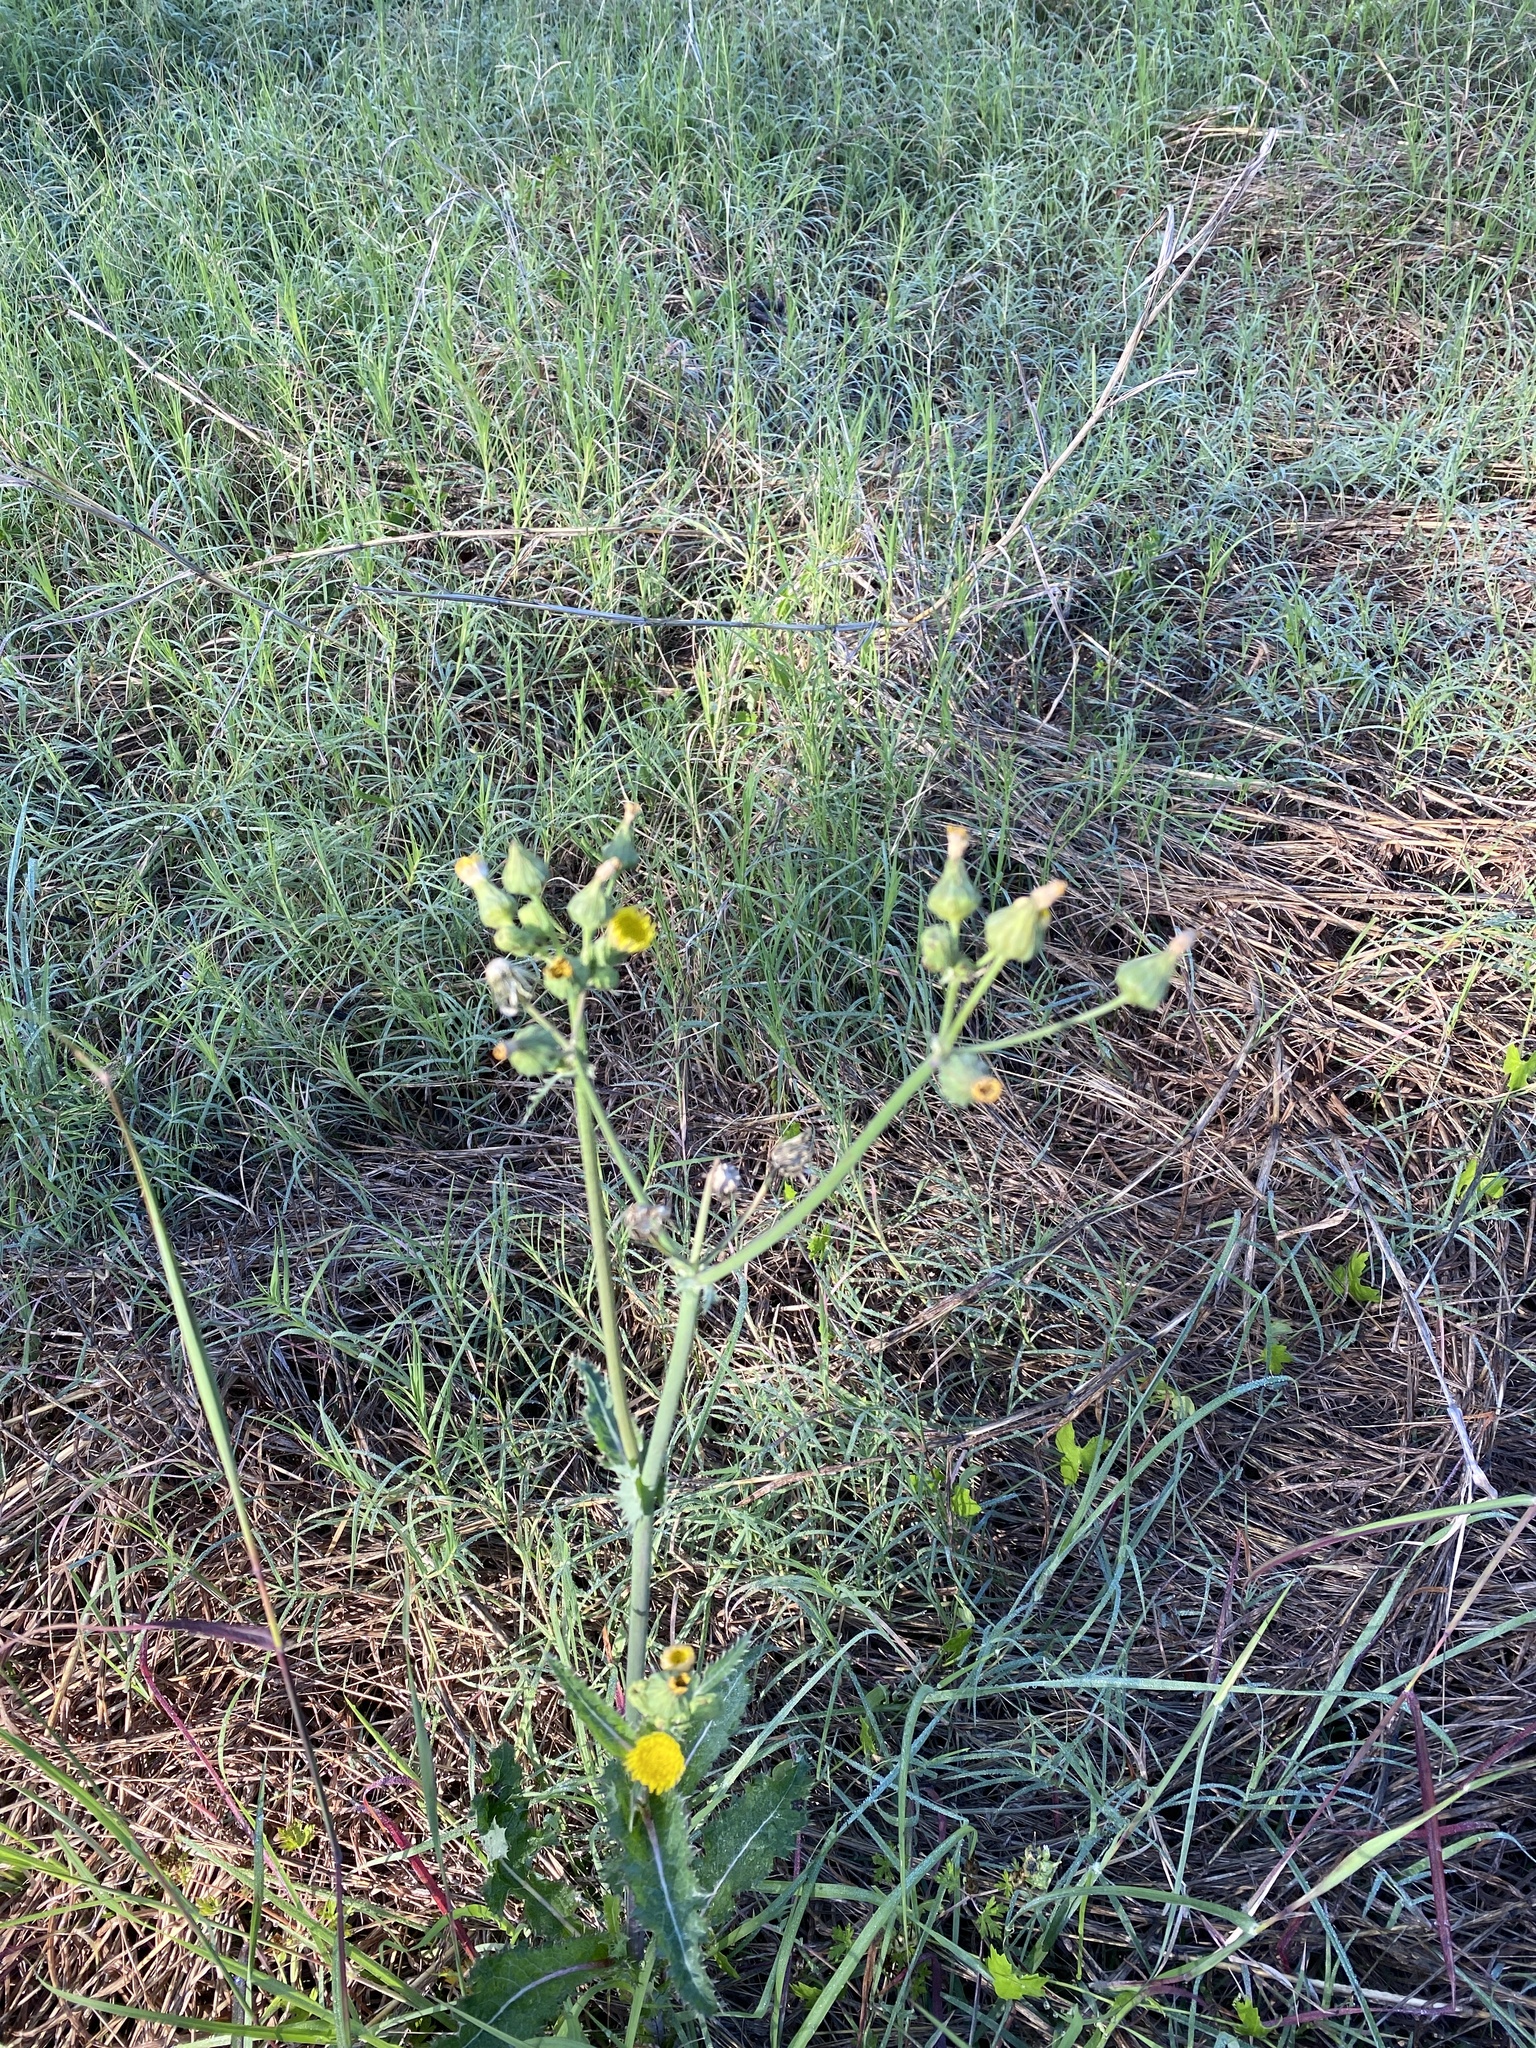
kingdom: Plantae
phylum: Tracheophyta
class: Magnoliopsida
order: Asterales
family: Asteraceae
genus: Sonchus
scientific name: Sonchus asper
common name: Prickly sow-thistle
